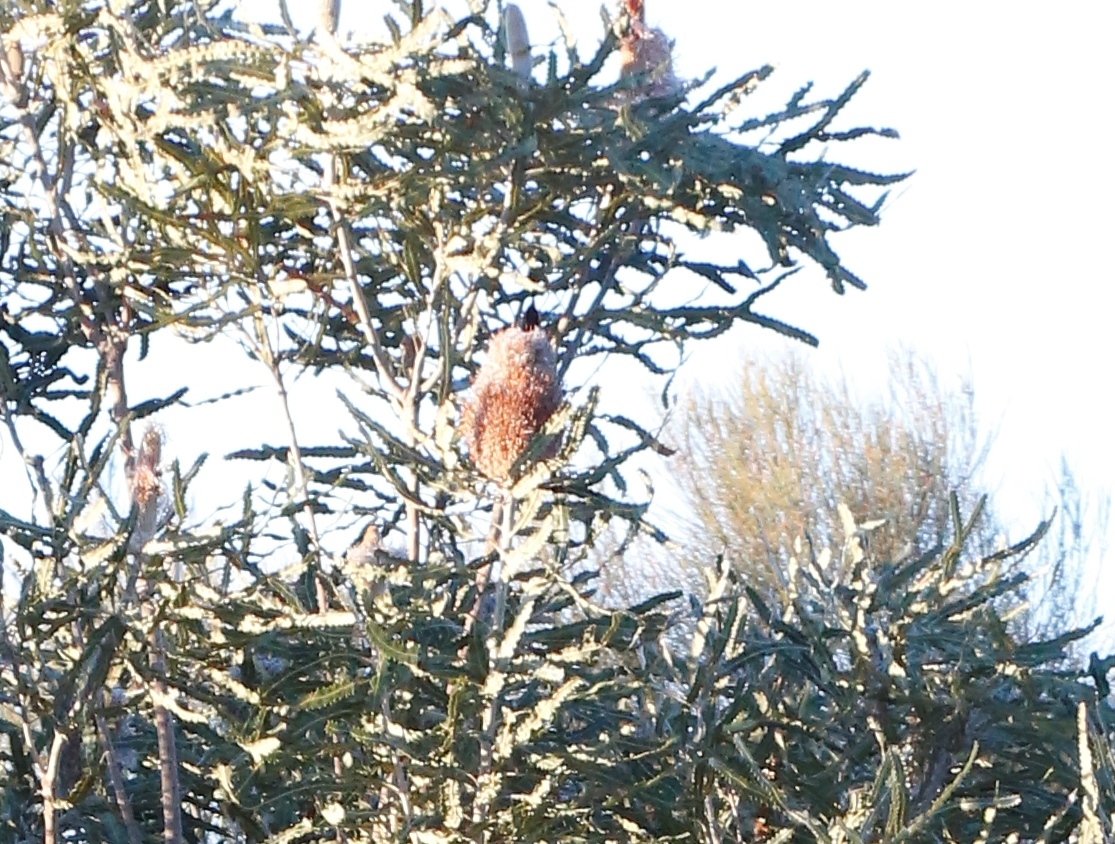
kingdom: Plantae
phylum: Tracheophyta
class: Magnoliopsida
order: Proteales
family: Proteaceae
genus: Banksia
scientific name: Banksia prionotes
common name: Acorn banksia
